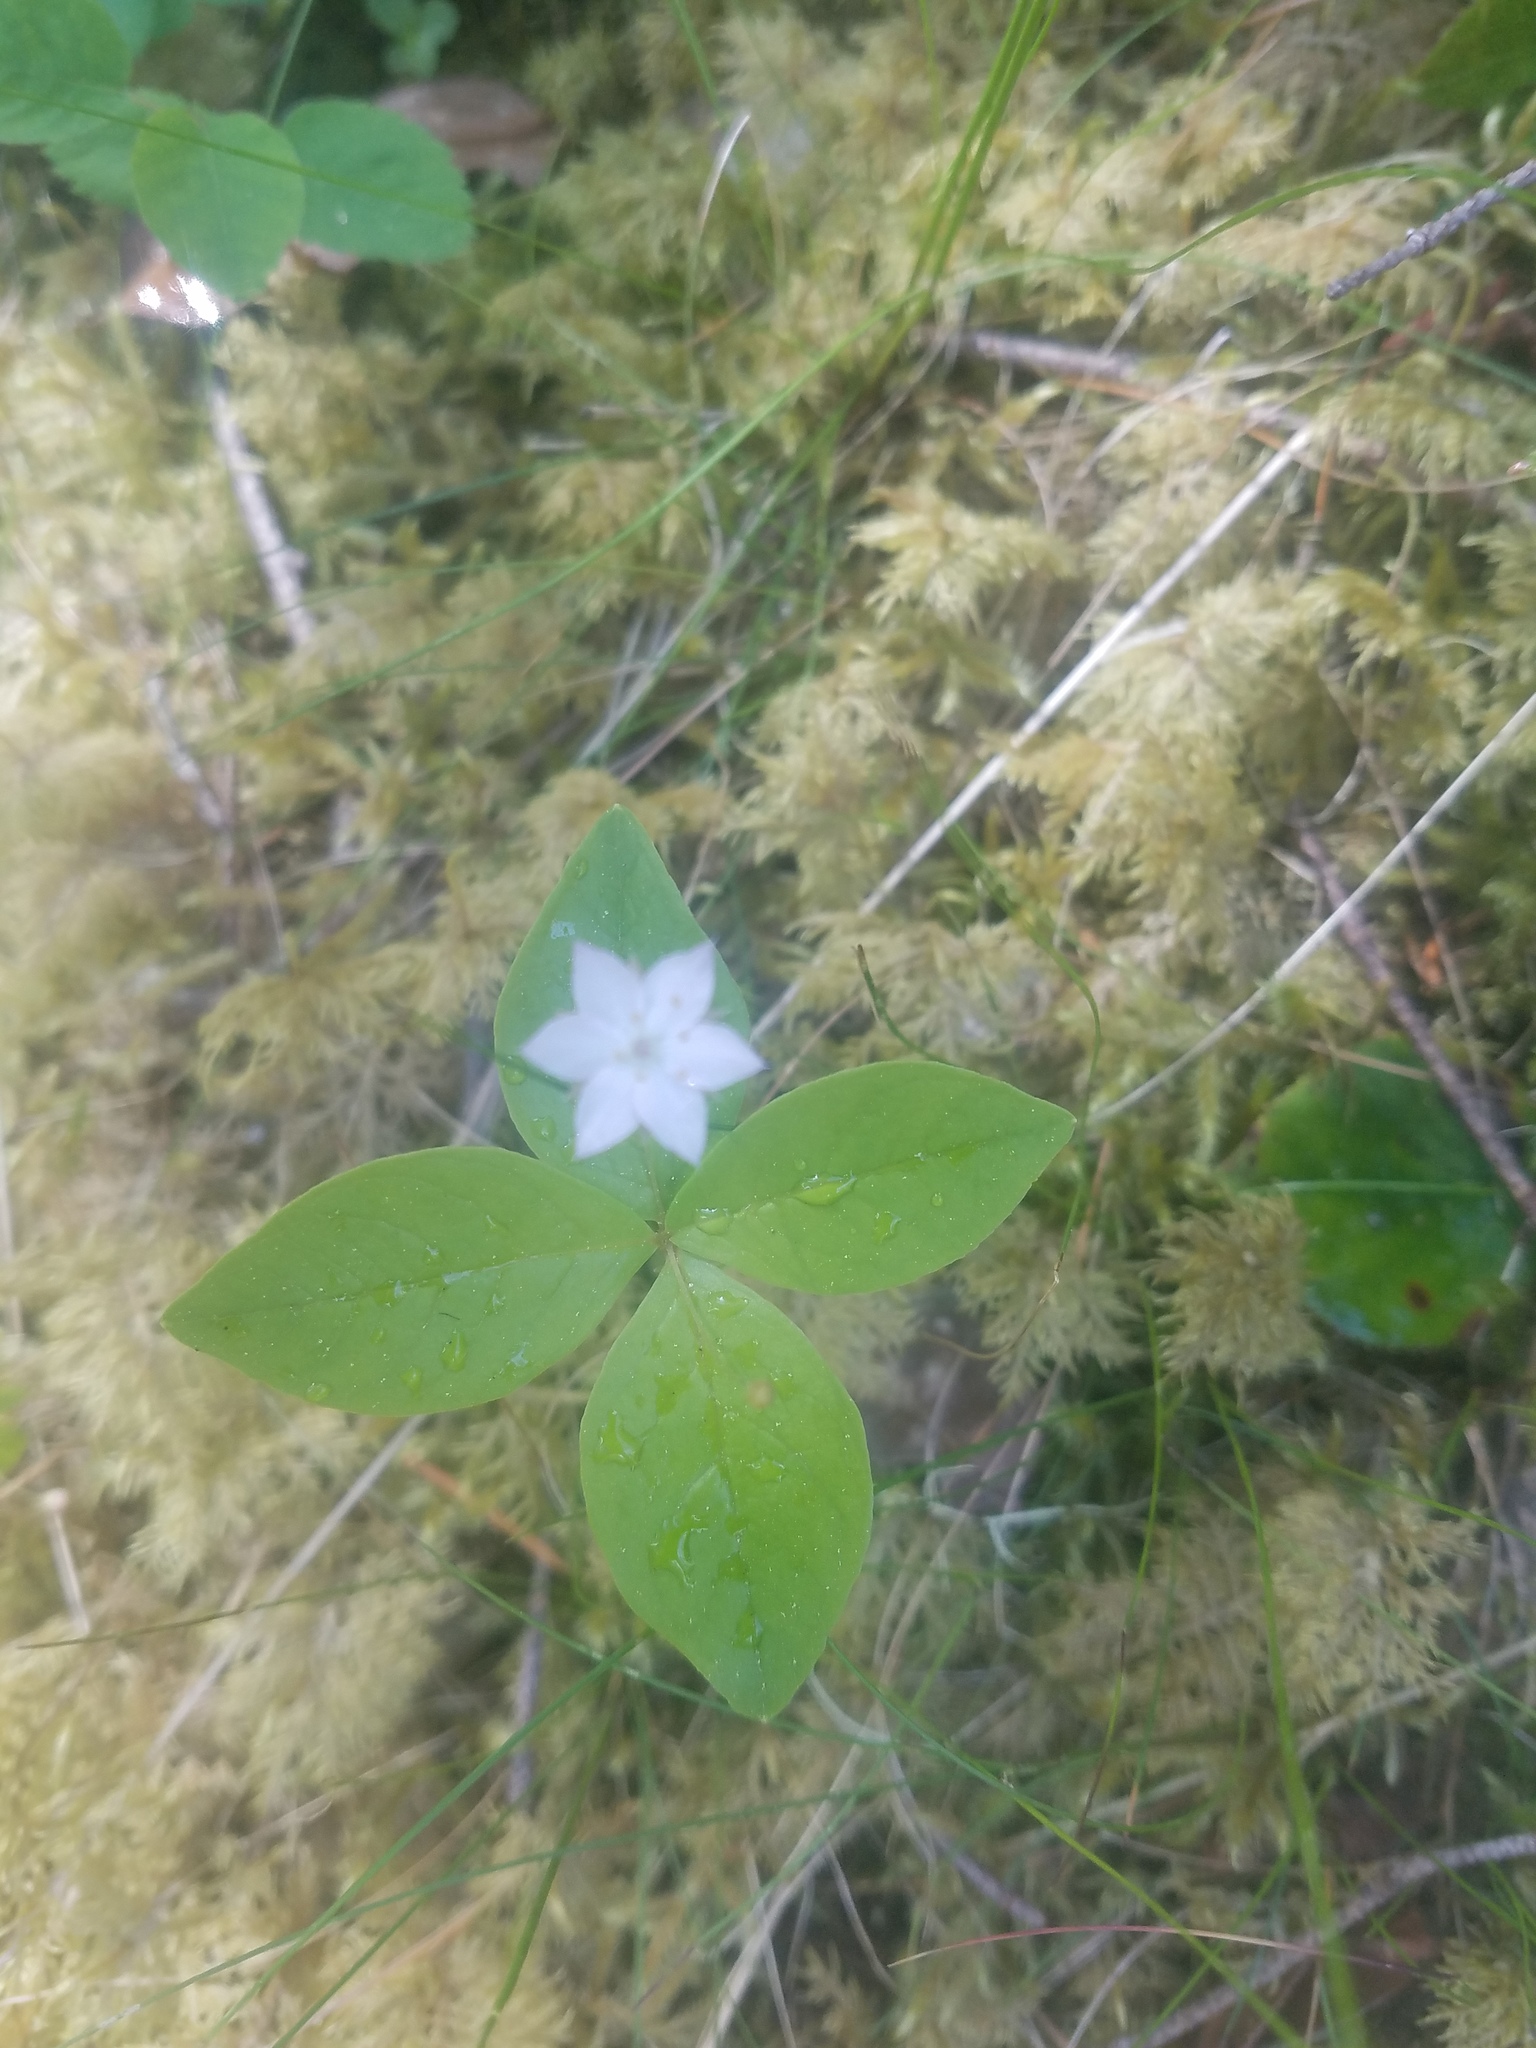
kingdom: Plantae
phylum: Tracheophyta
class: Magnoliopsida
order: Ericales
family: Primulaceae
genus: Lysimachia
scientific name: Lysimachia latifolia
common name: Pacific starflower
